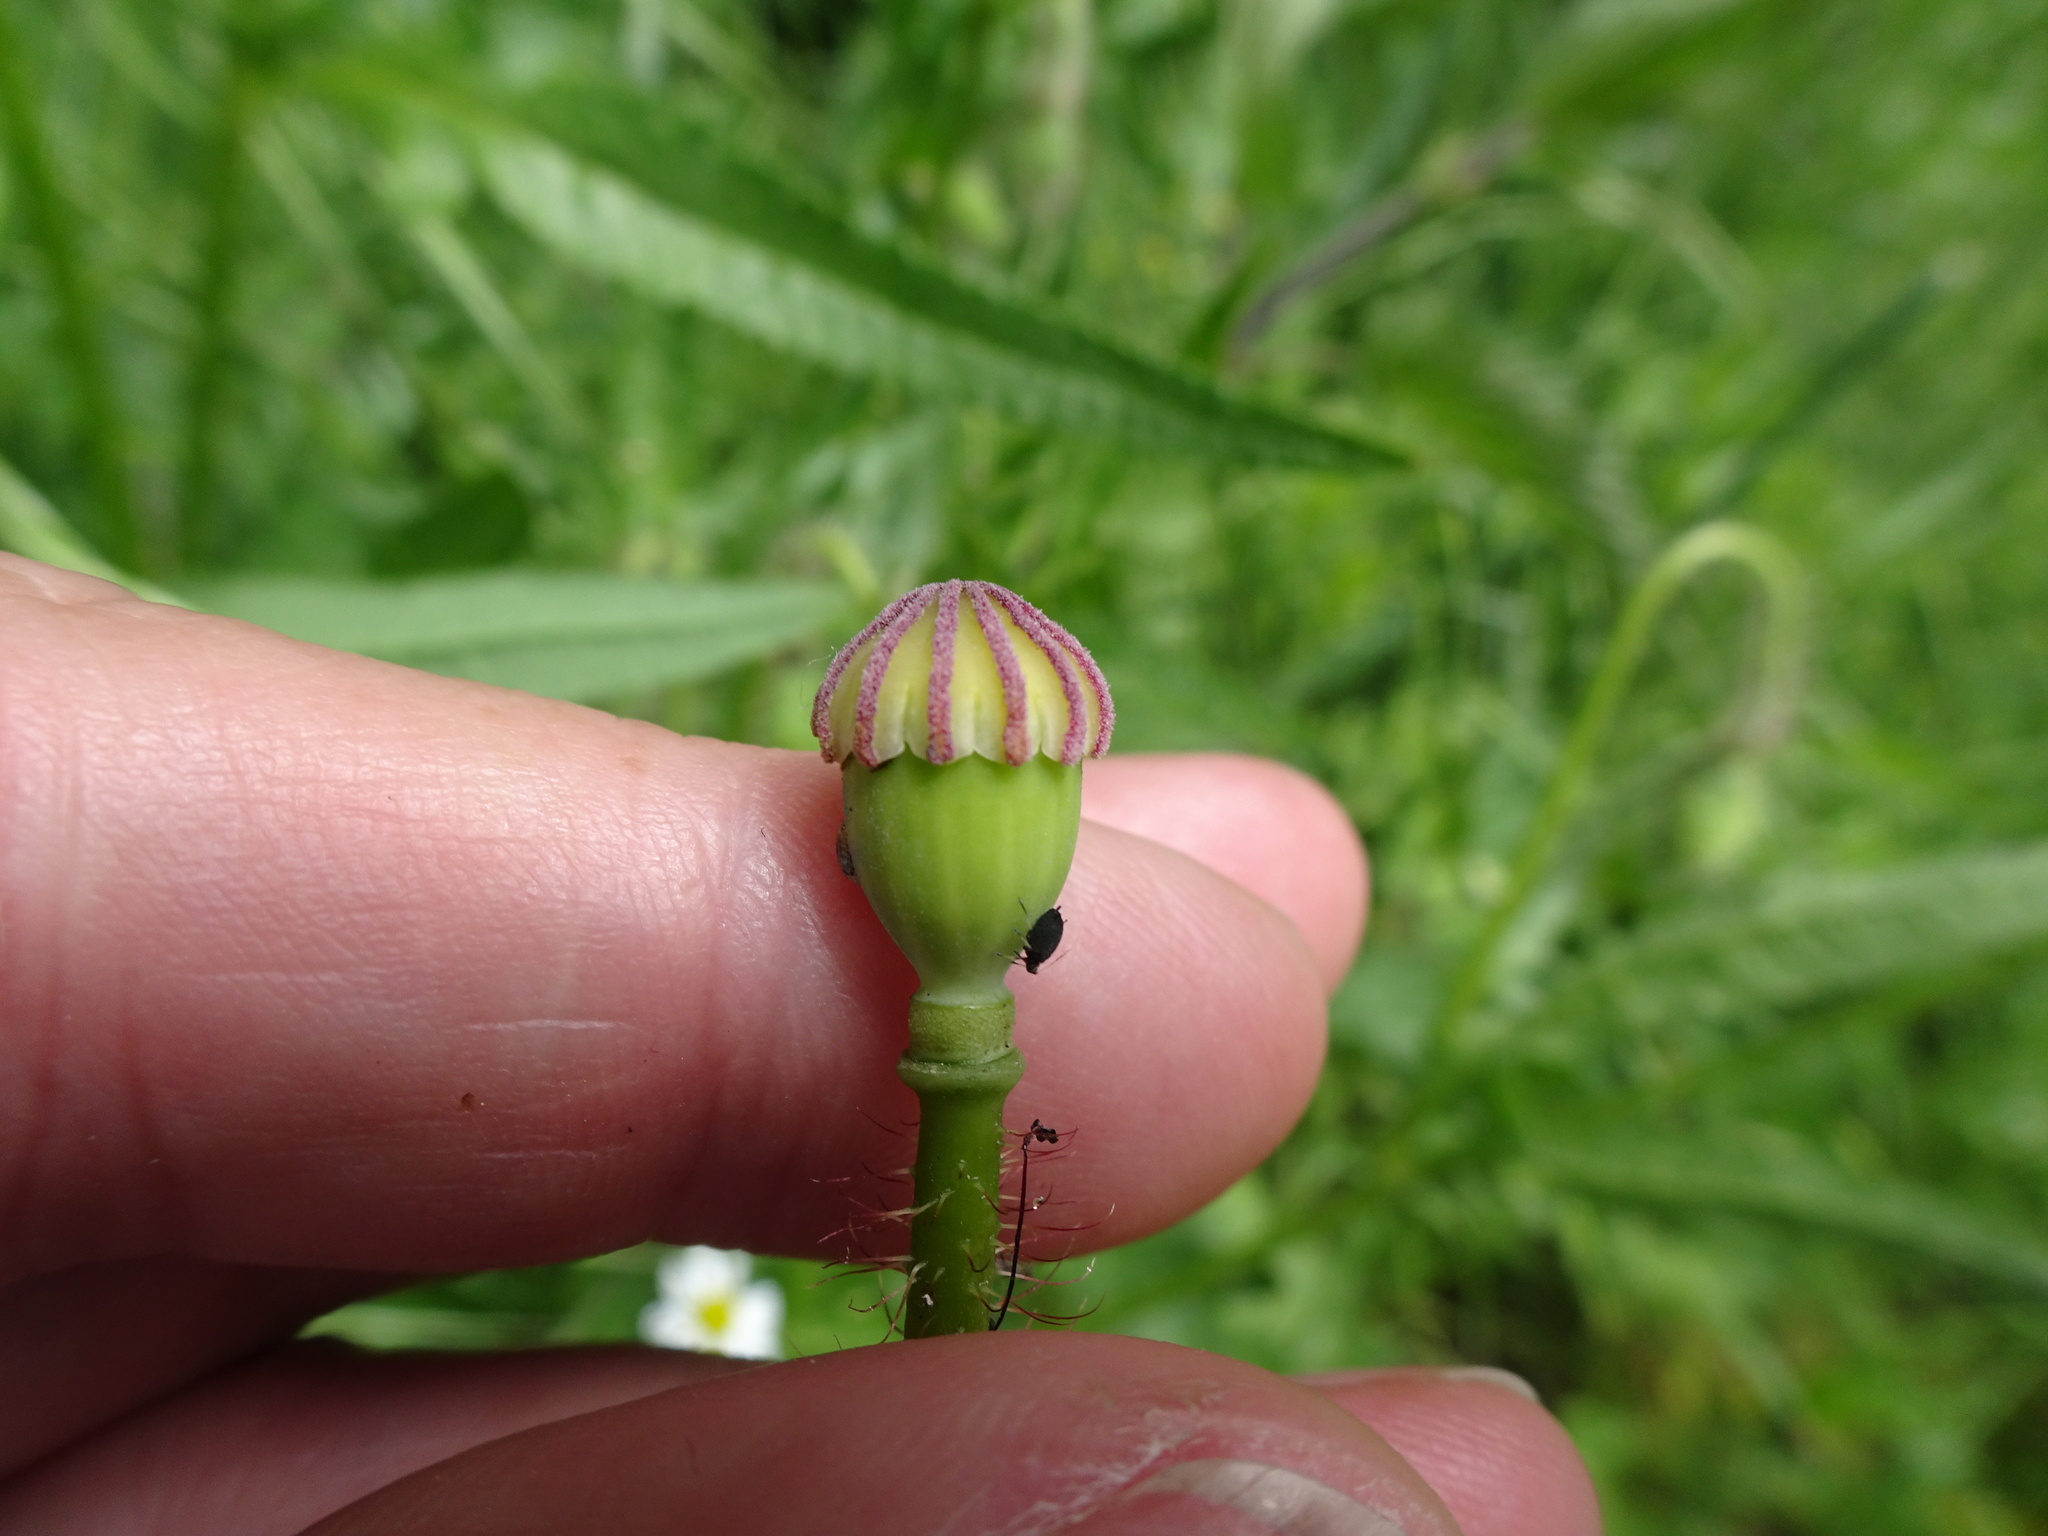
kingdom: Plantae
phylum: Tracheophyta
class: Magnoliopsida
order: Ranunculales
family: Papaveraceae
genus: Papaver
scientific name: Papaver rhoeas
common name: Corn poppy
